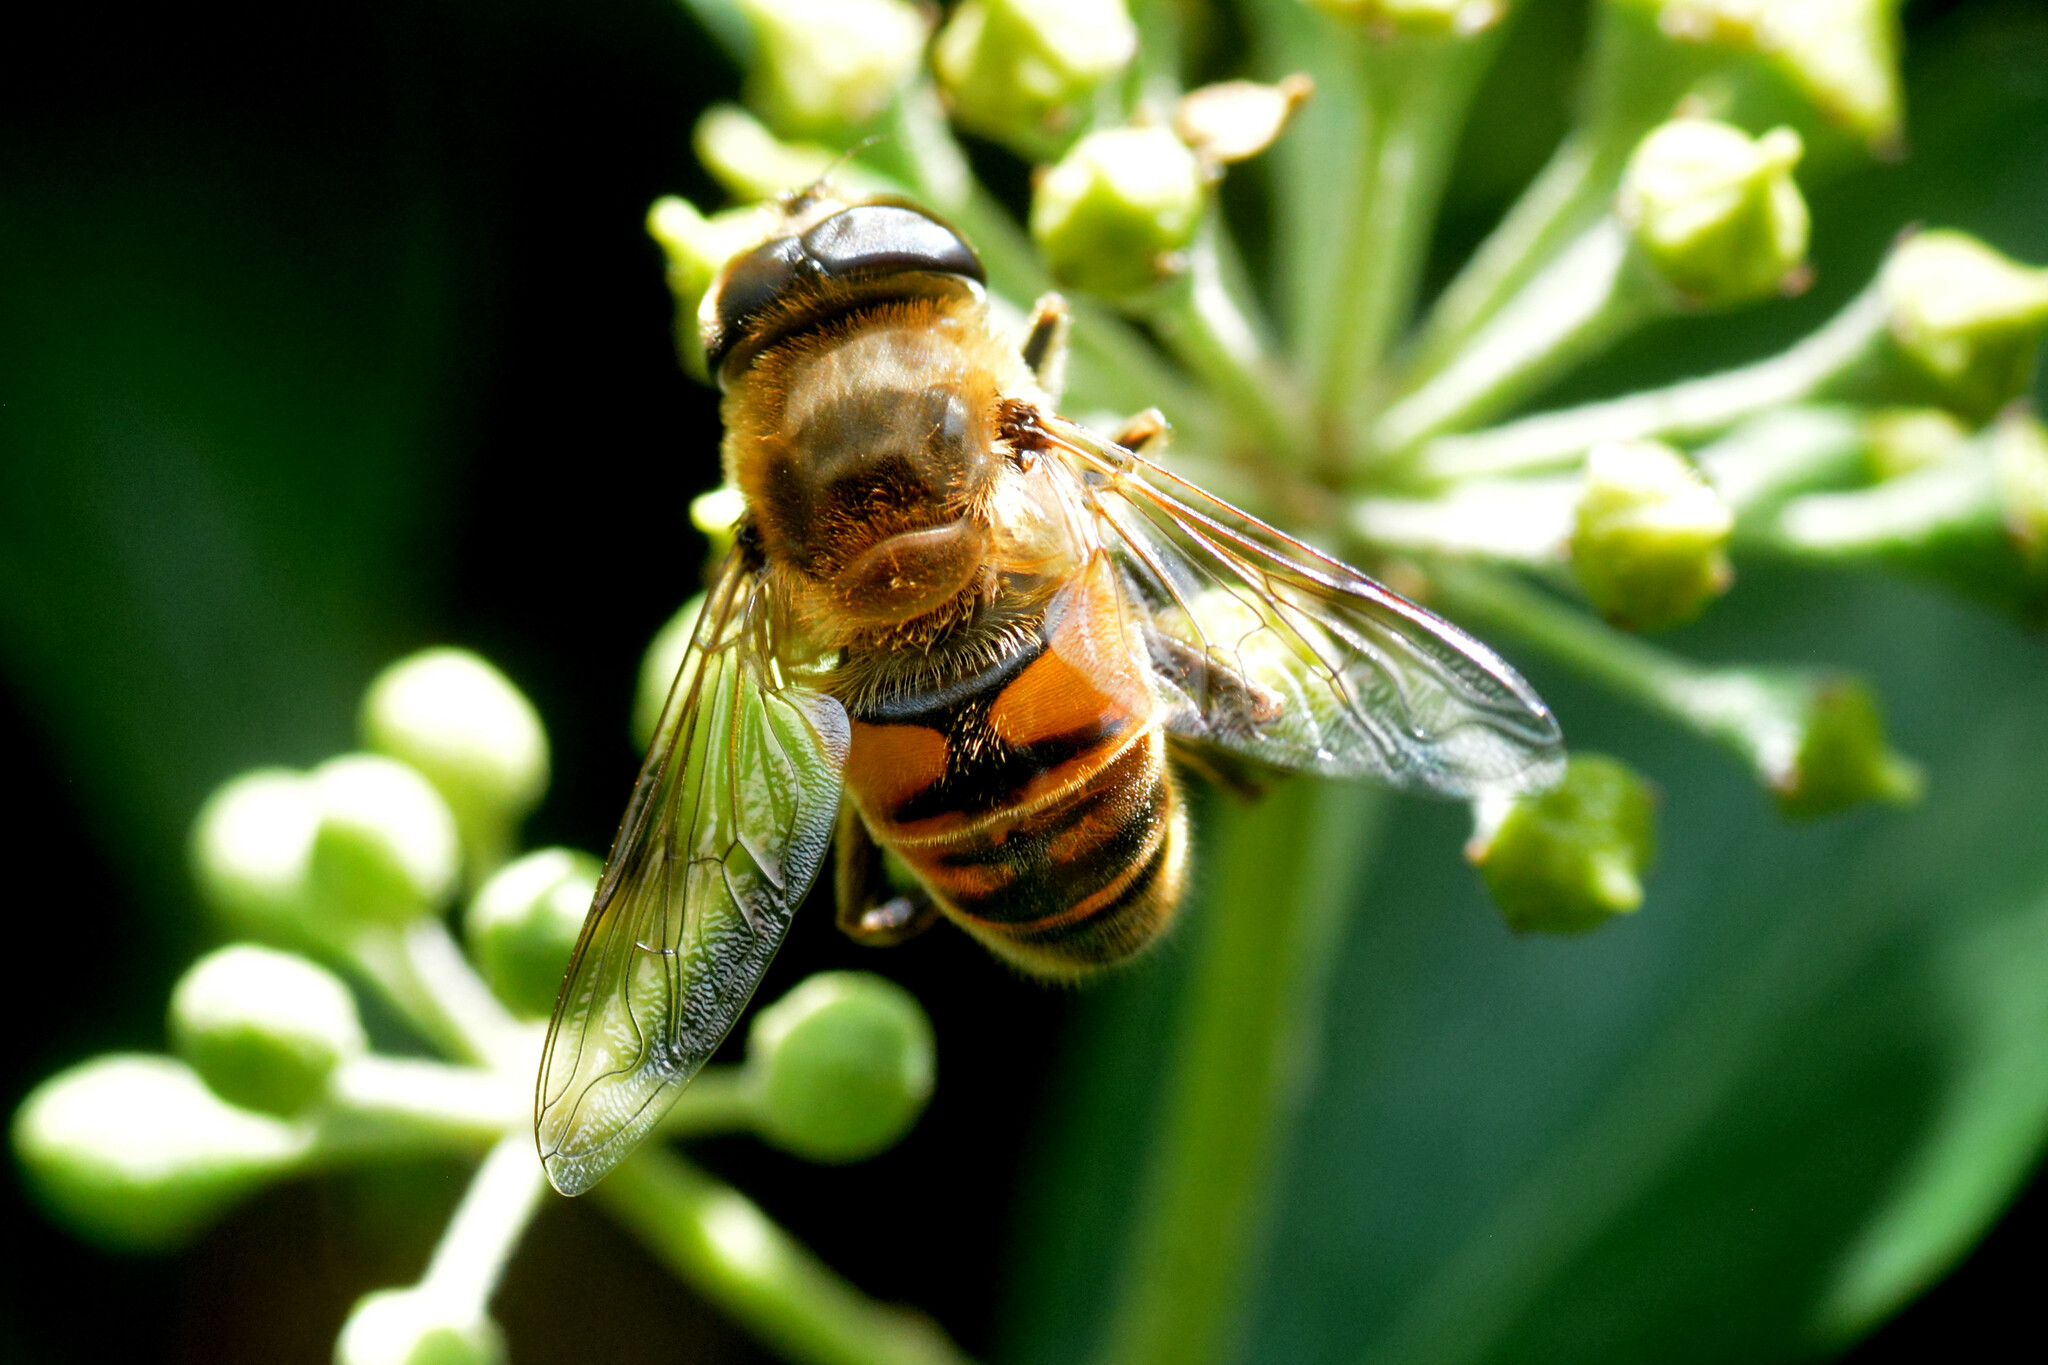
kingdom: Animalia
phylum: Arthropoda
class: Insecta
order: Diptera
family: Syrphidae
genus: Eristalis
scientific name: Eristalis tenax
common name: Drone fly
